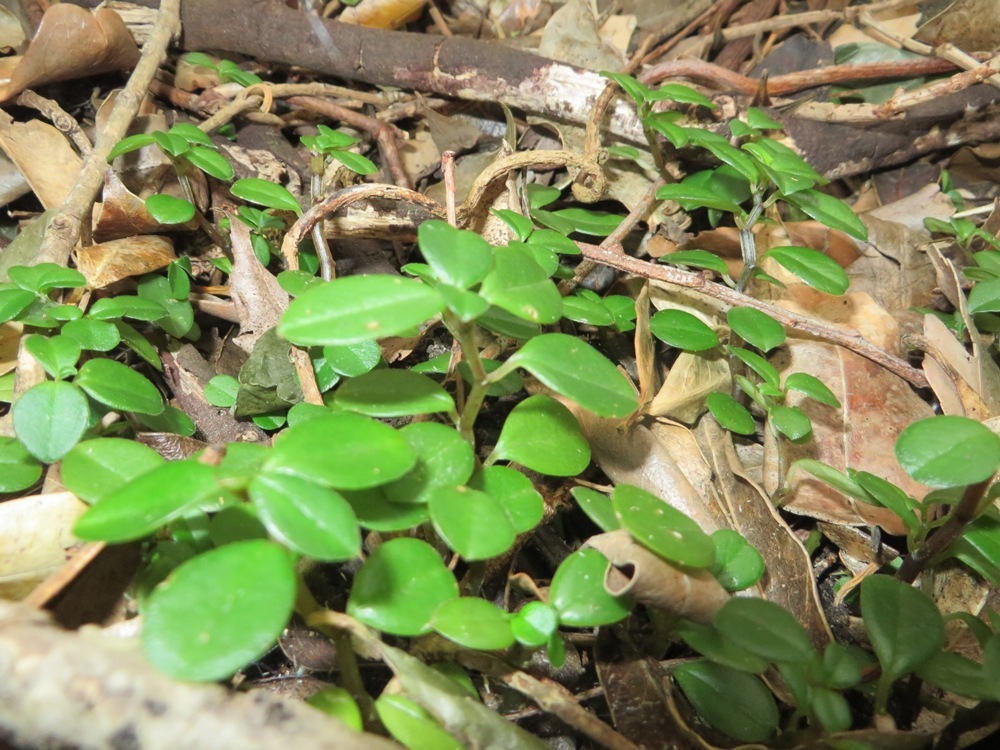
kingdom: Plantae
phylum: Tracheophyta
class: Magnoliopsida
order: Piperales
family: Piperaceae
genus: Peperomia
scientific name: Peperomia retusa
